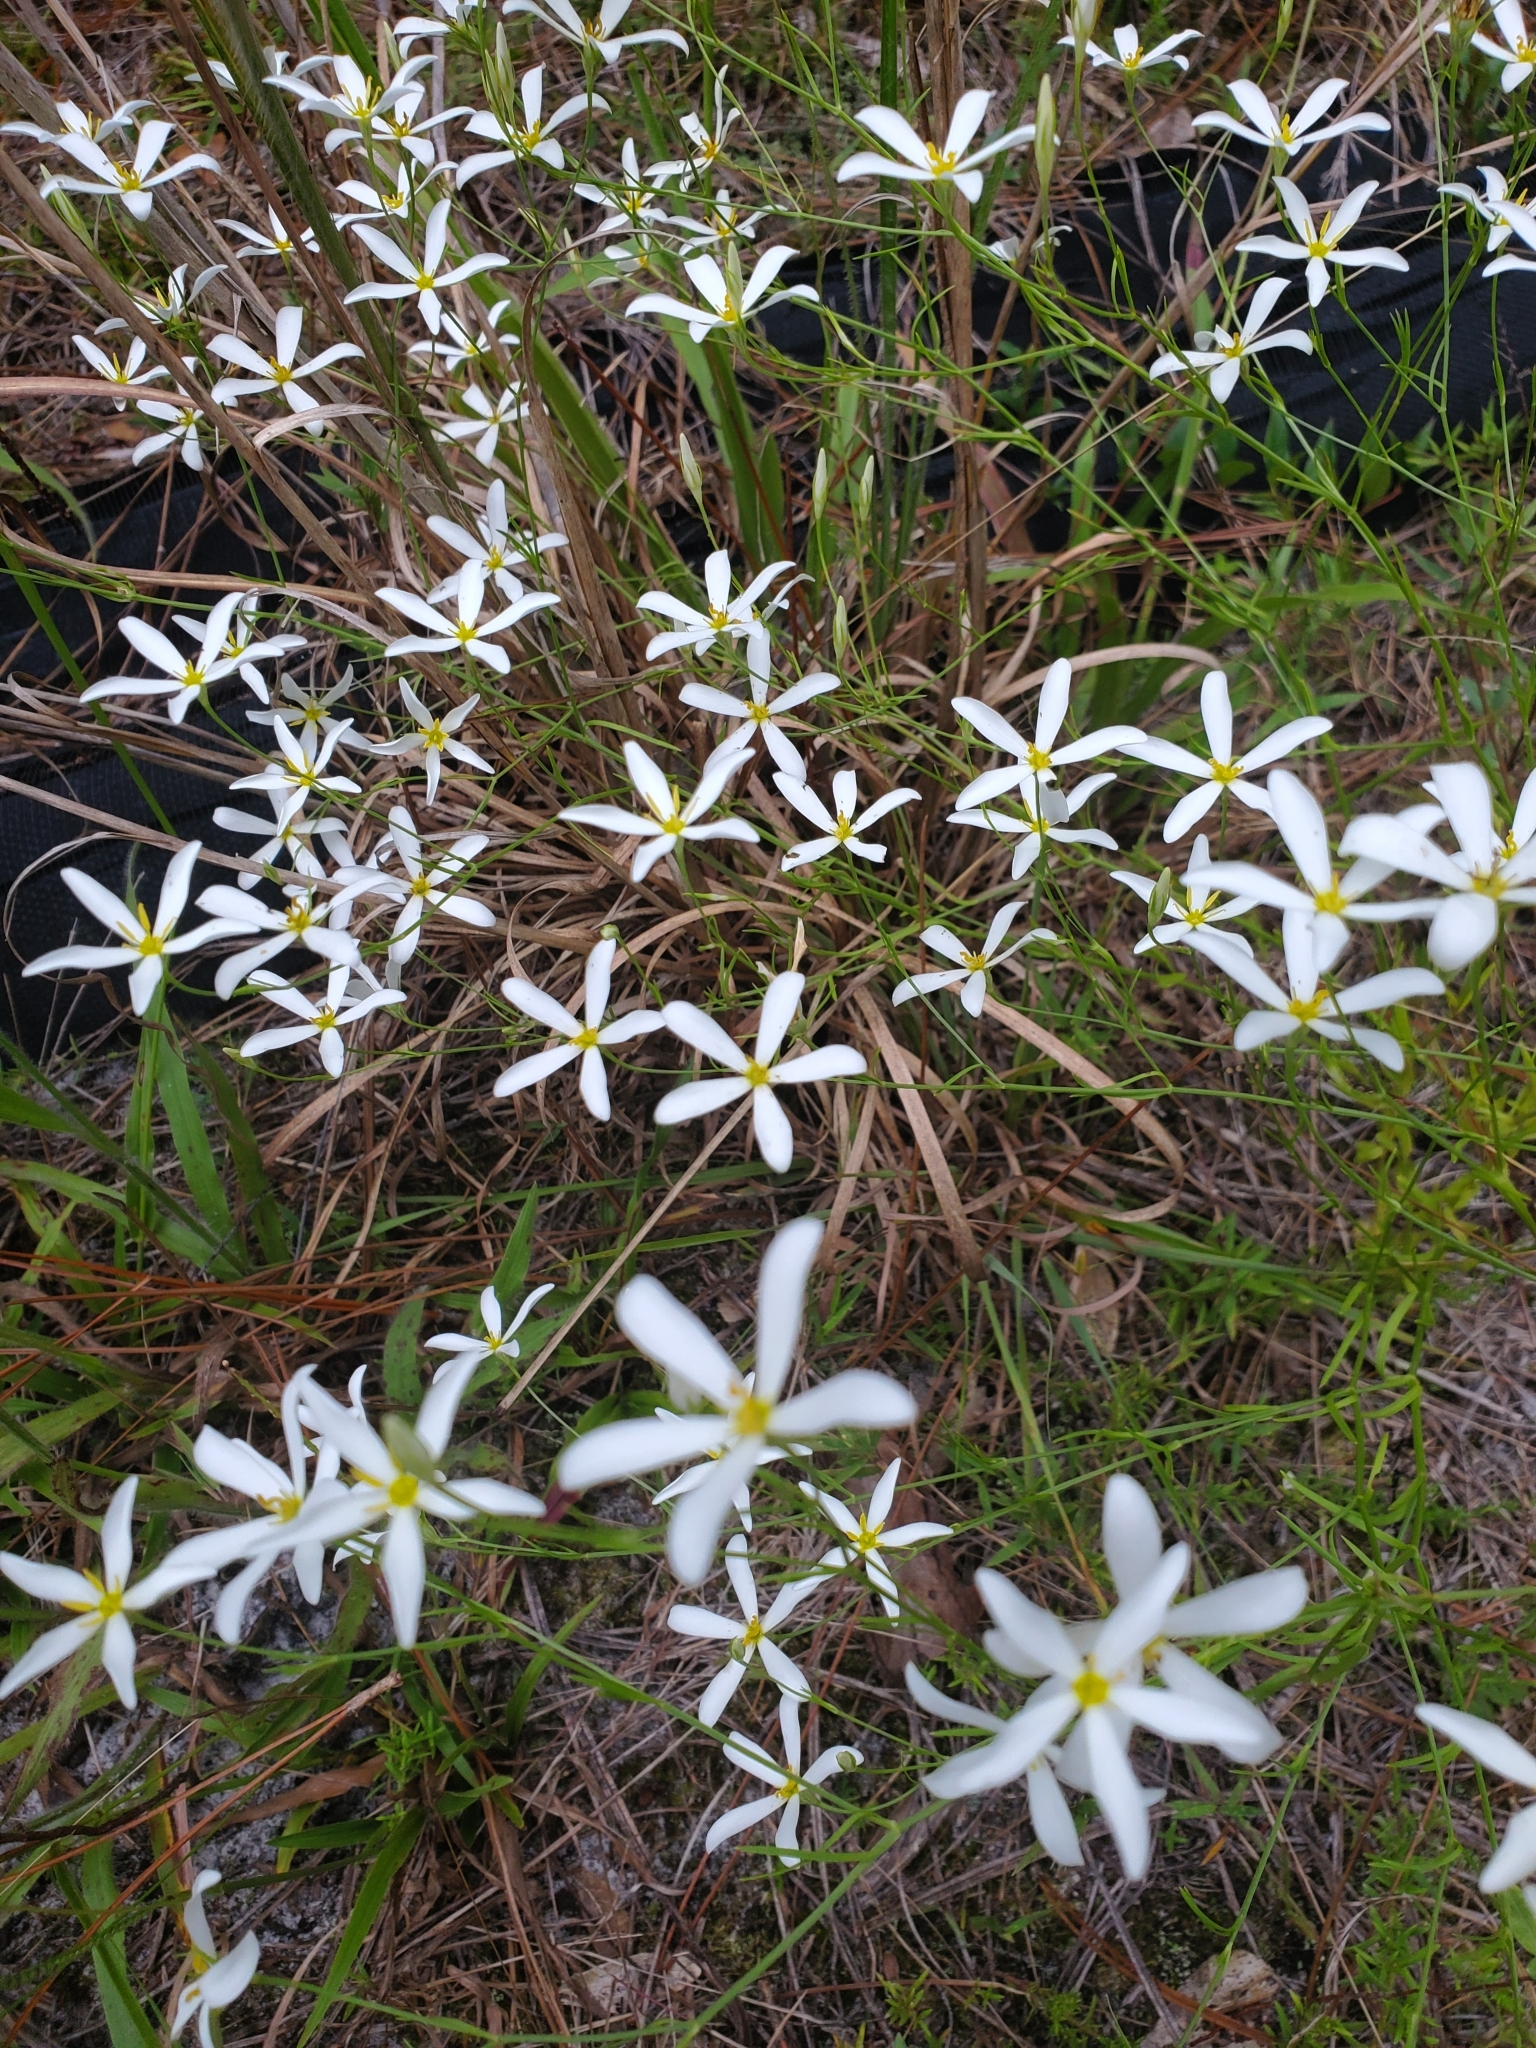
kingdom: Plantae
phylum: Tracheophyta
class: Magnoliopsida
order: Gentianales
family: Gentianaceae
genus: Sabatia
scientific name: Sabatia brevifolia
